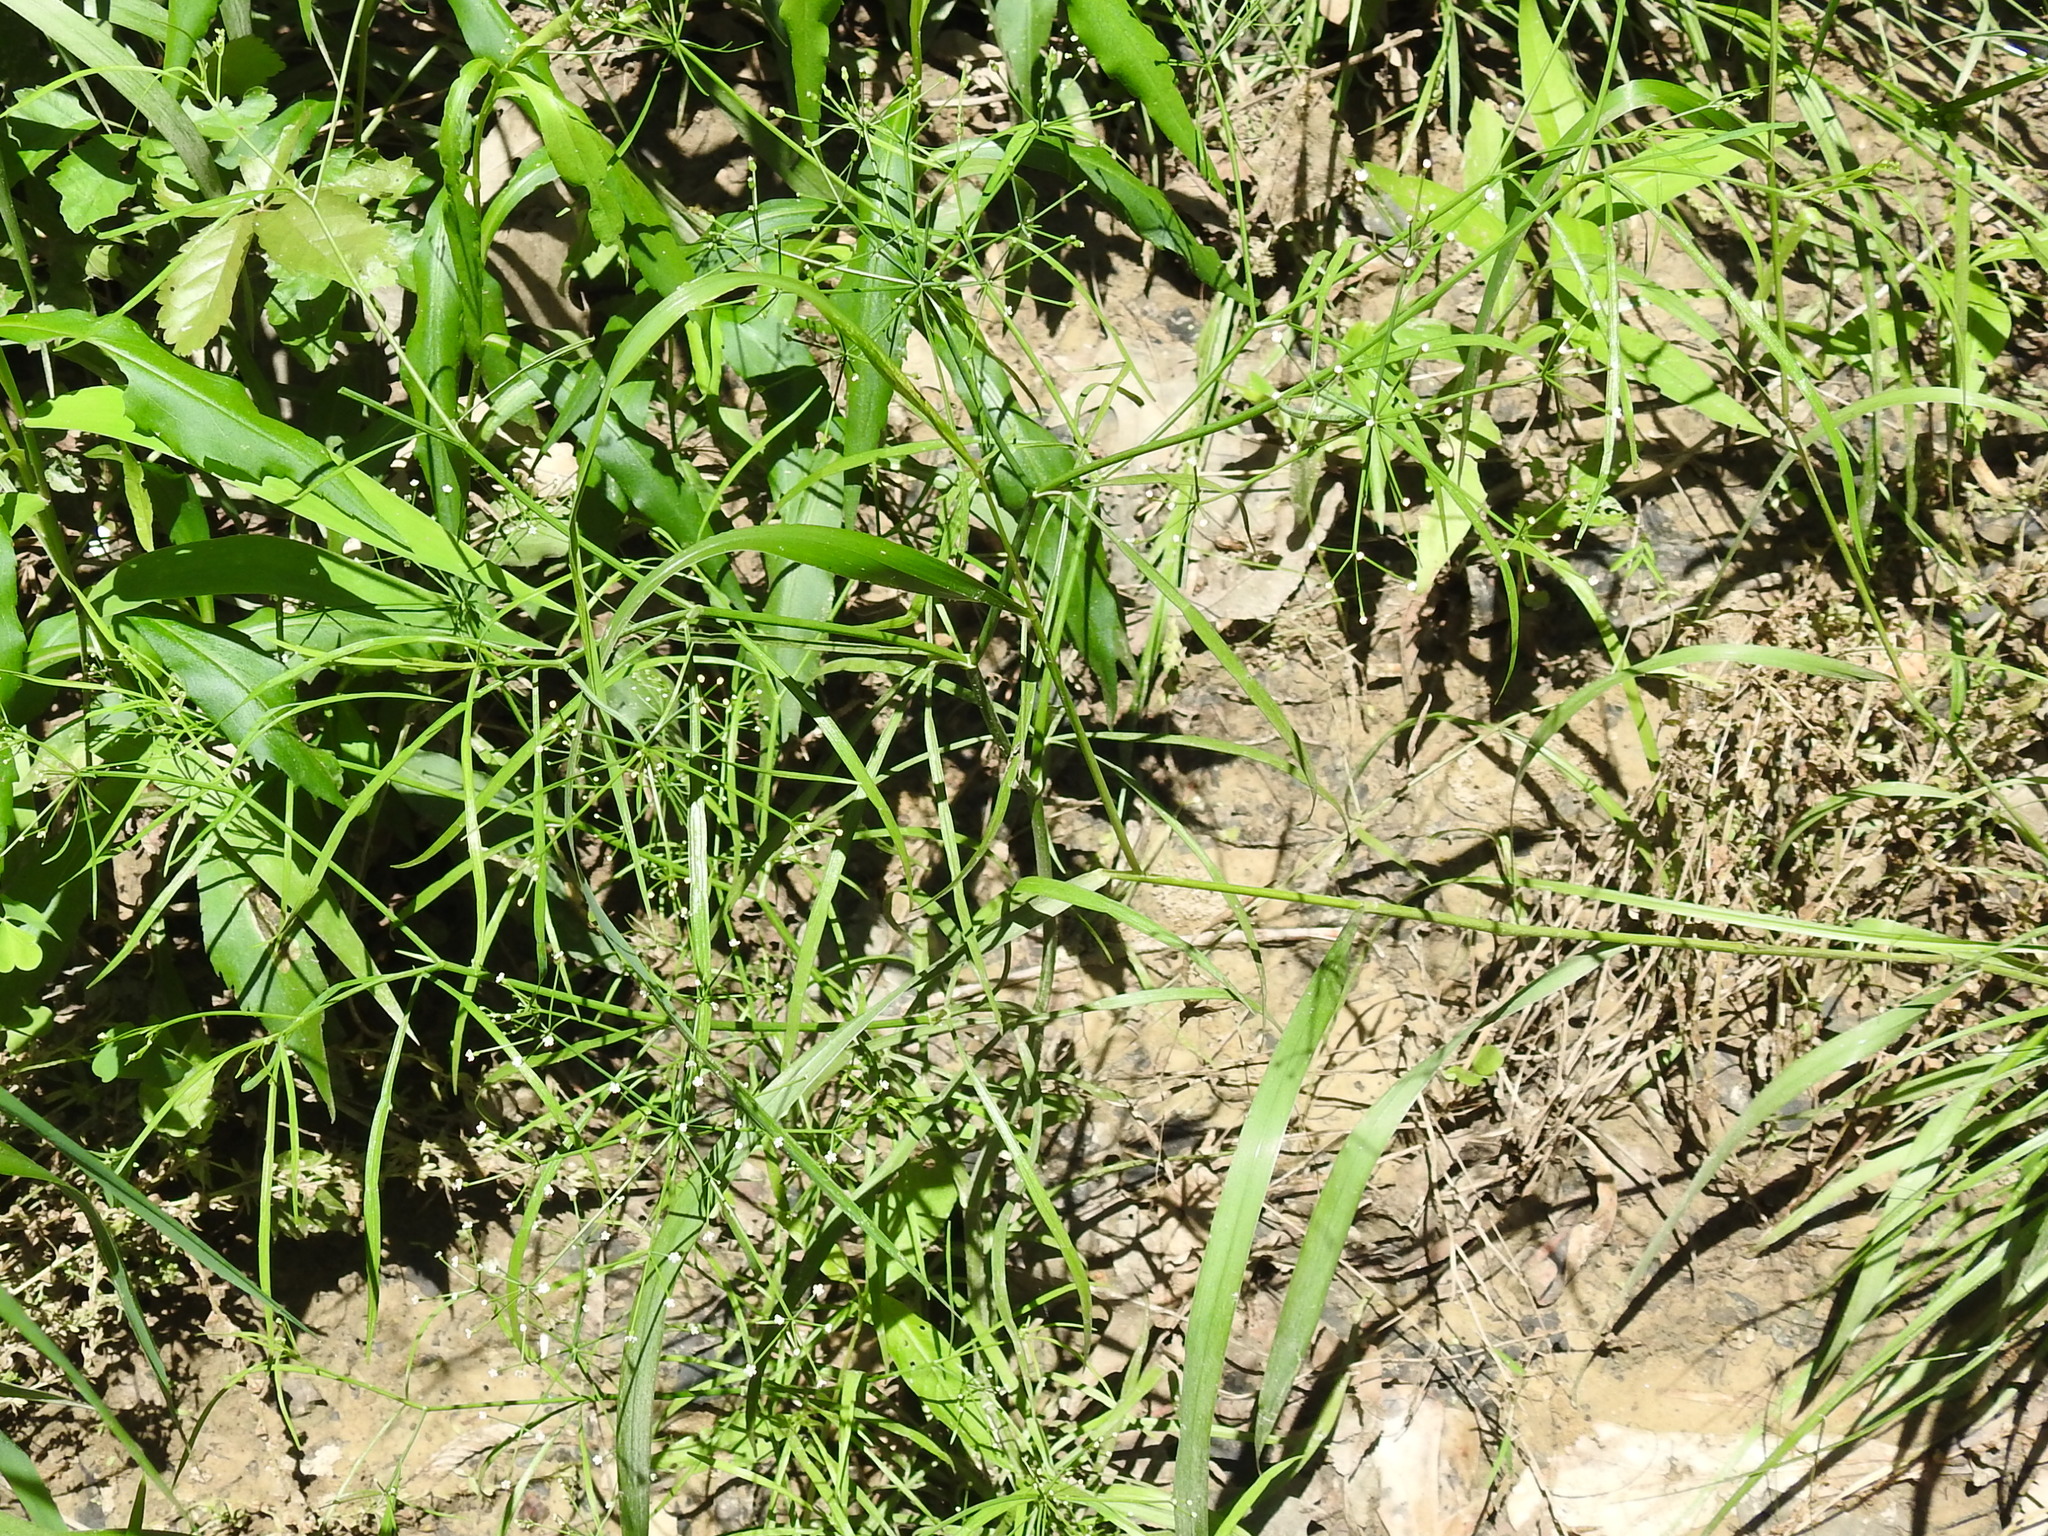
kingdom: Plantae
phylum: Tracheophyta
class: Magnoliopsida
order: Apiales
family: Apiaceae
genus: Cynosciadium
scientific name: Cynosciadium digitatum
